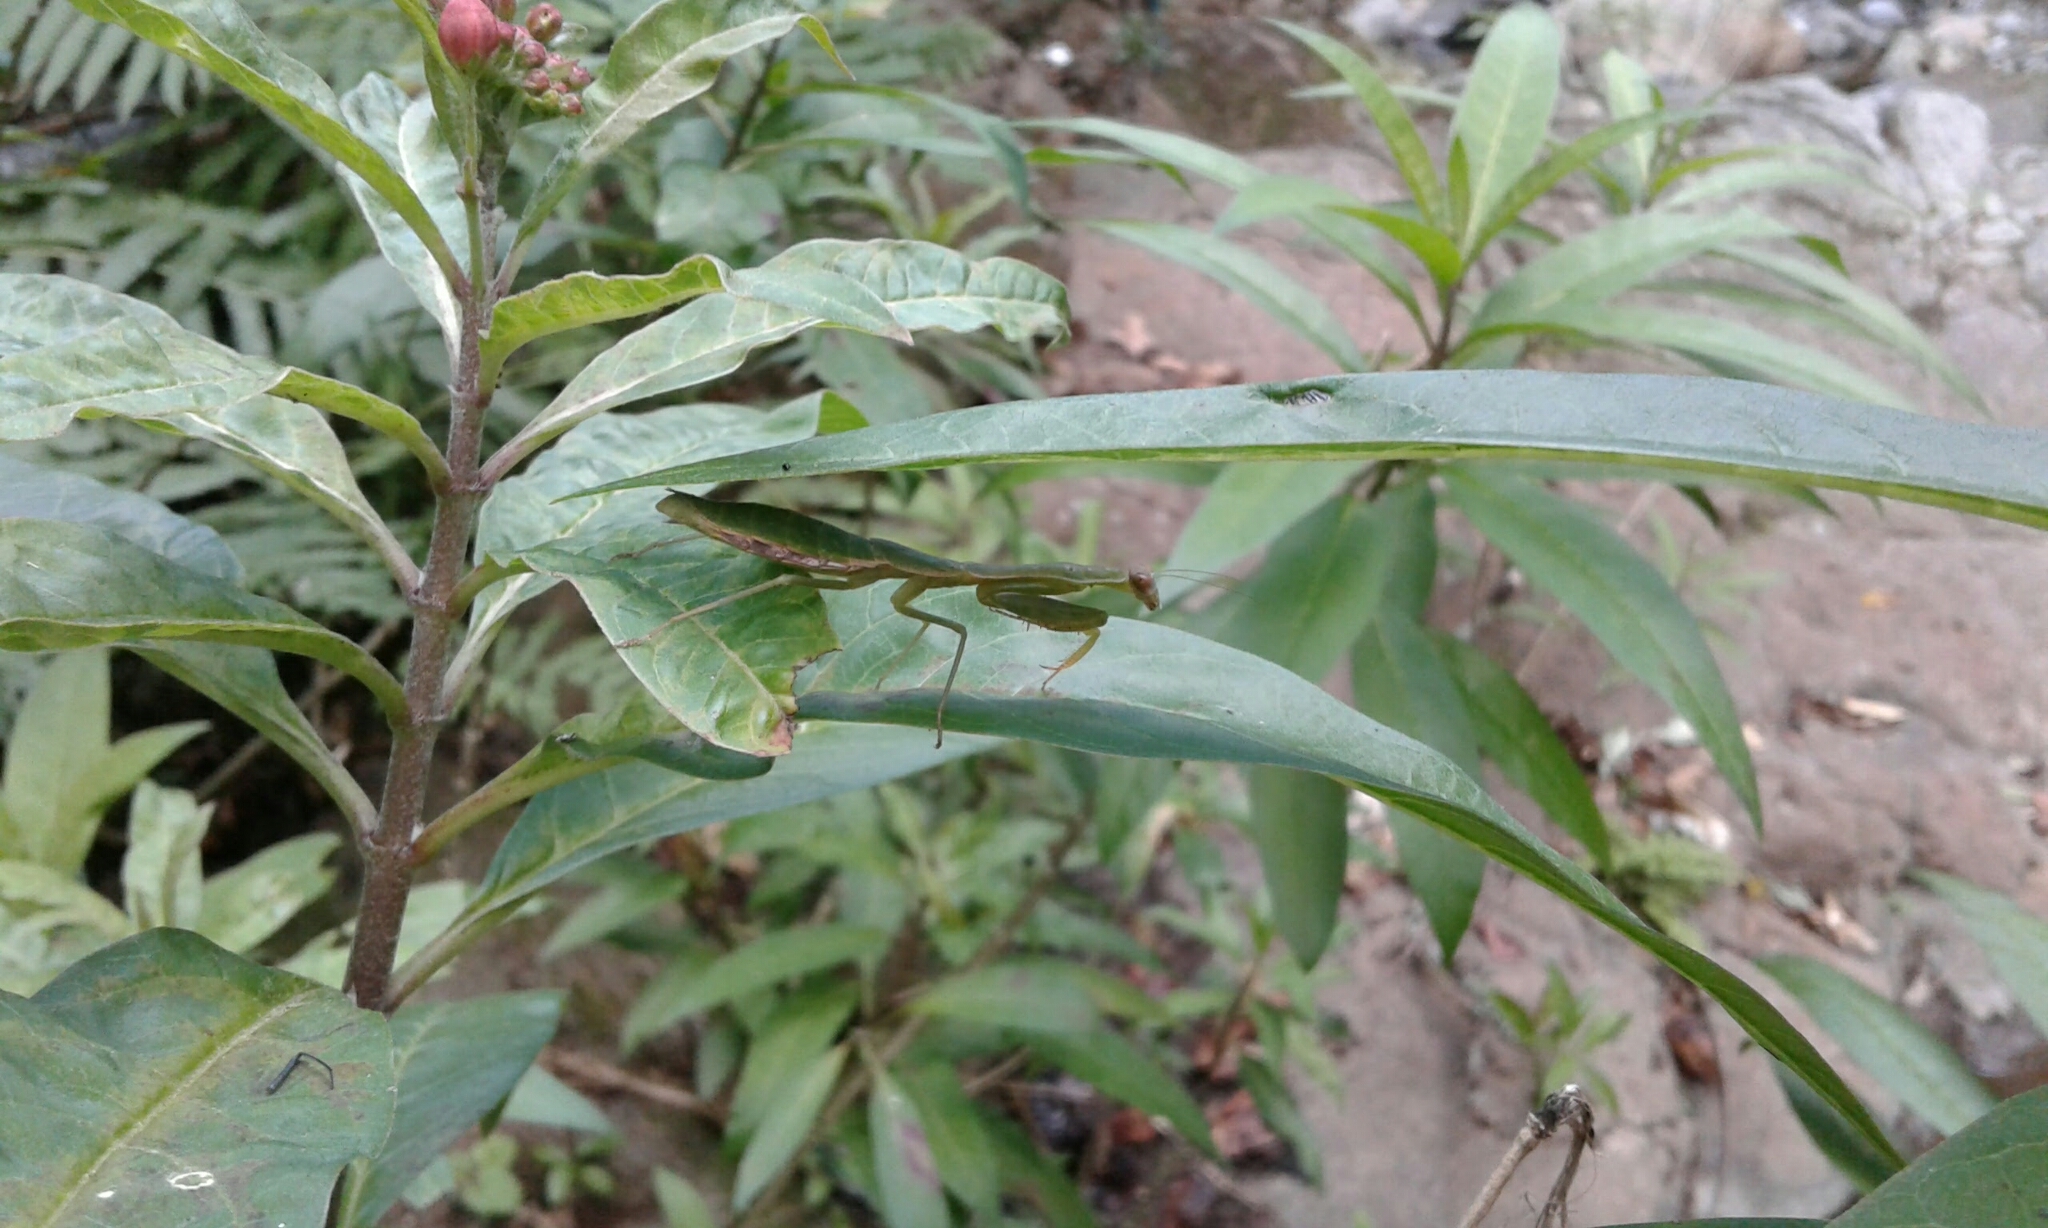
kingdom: Animalia
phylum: Arthropoda
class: Insecta
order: Mantodea
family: Mantidae
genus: Stagmomantis
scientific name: Stagmomantis nahua
